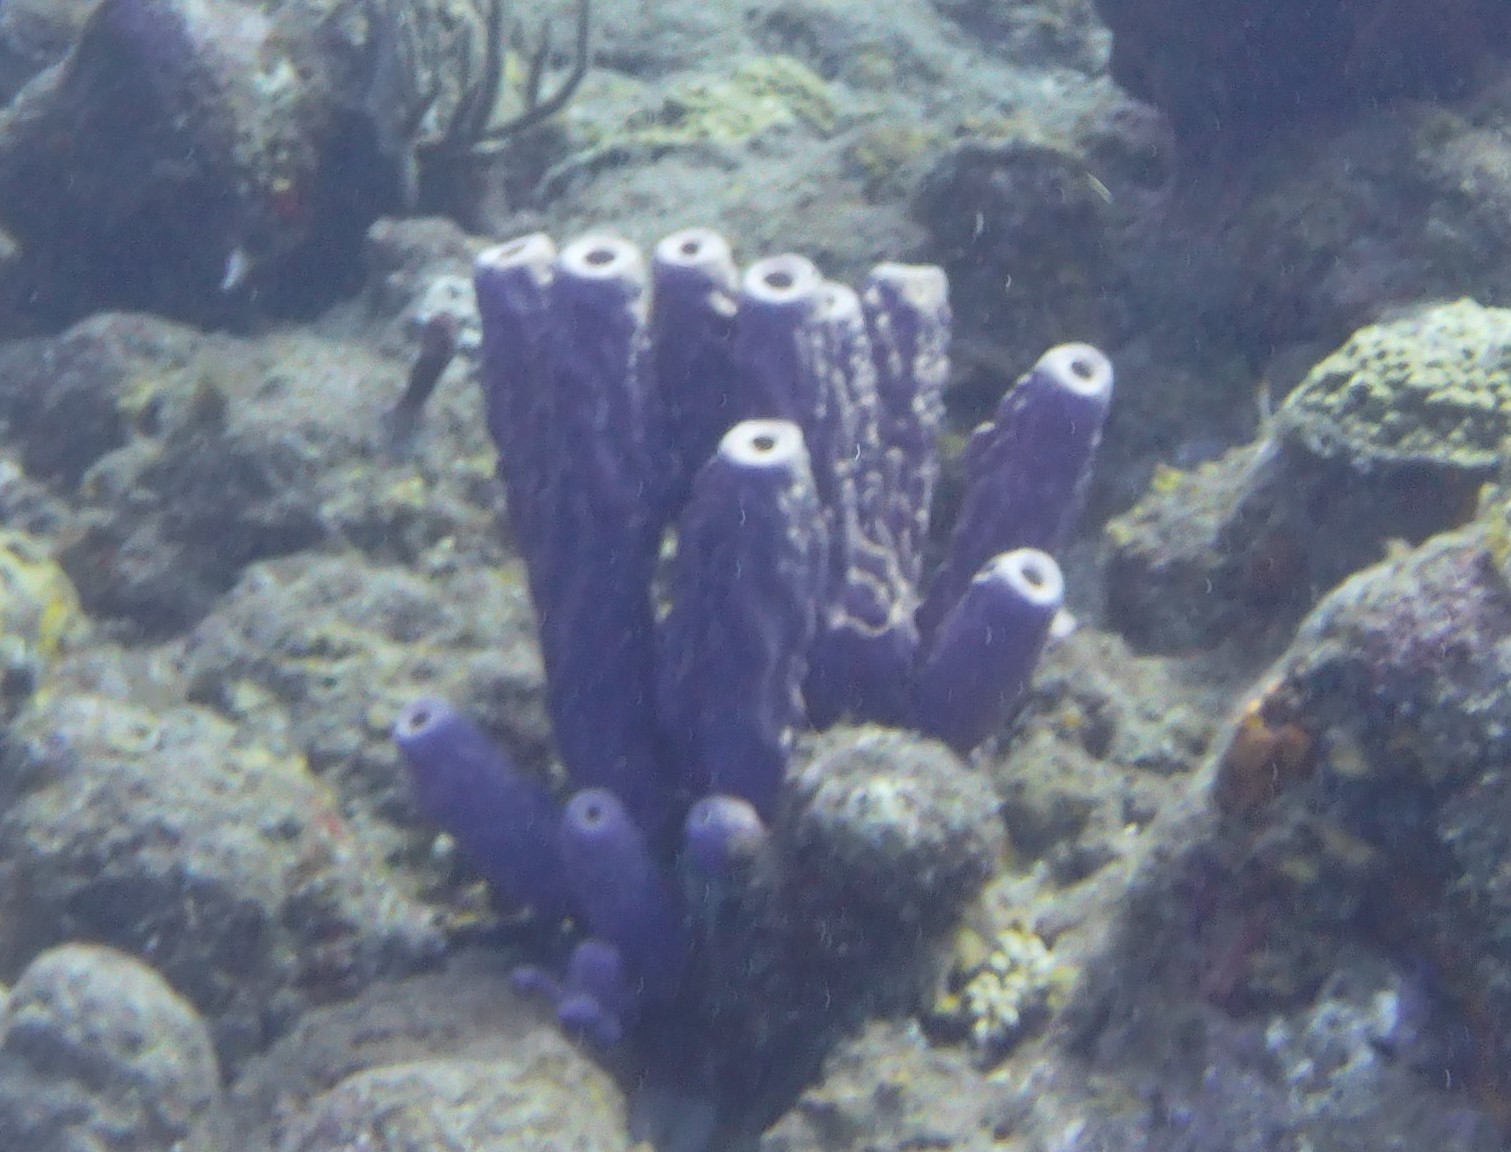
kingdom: Animalia
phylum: Porifera
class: Demospongiae
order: Verongiida
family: Aplysinidae
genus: Aplysina
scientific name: Aplysina archeri
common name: Stove-pipe sponge
